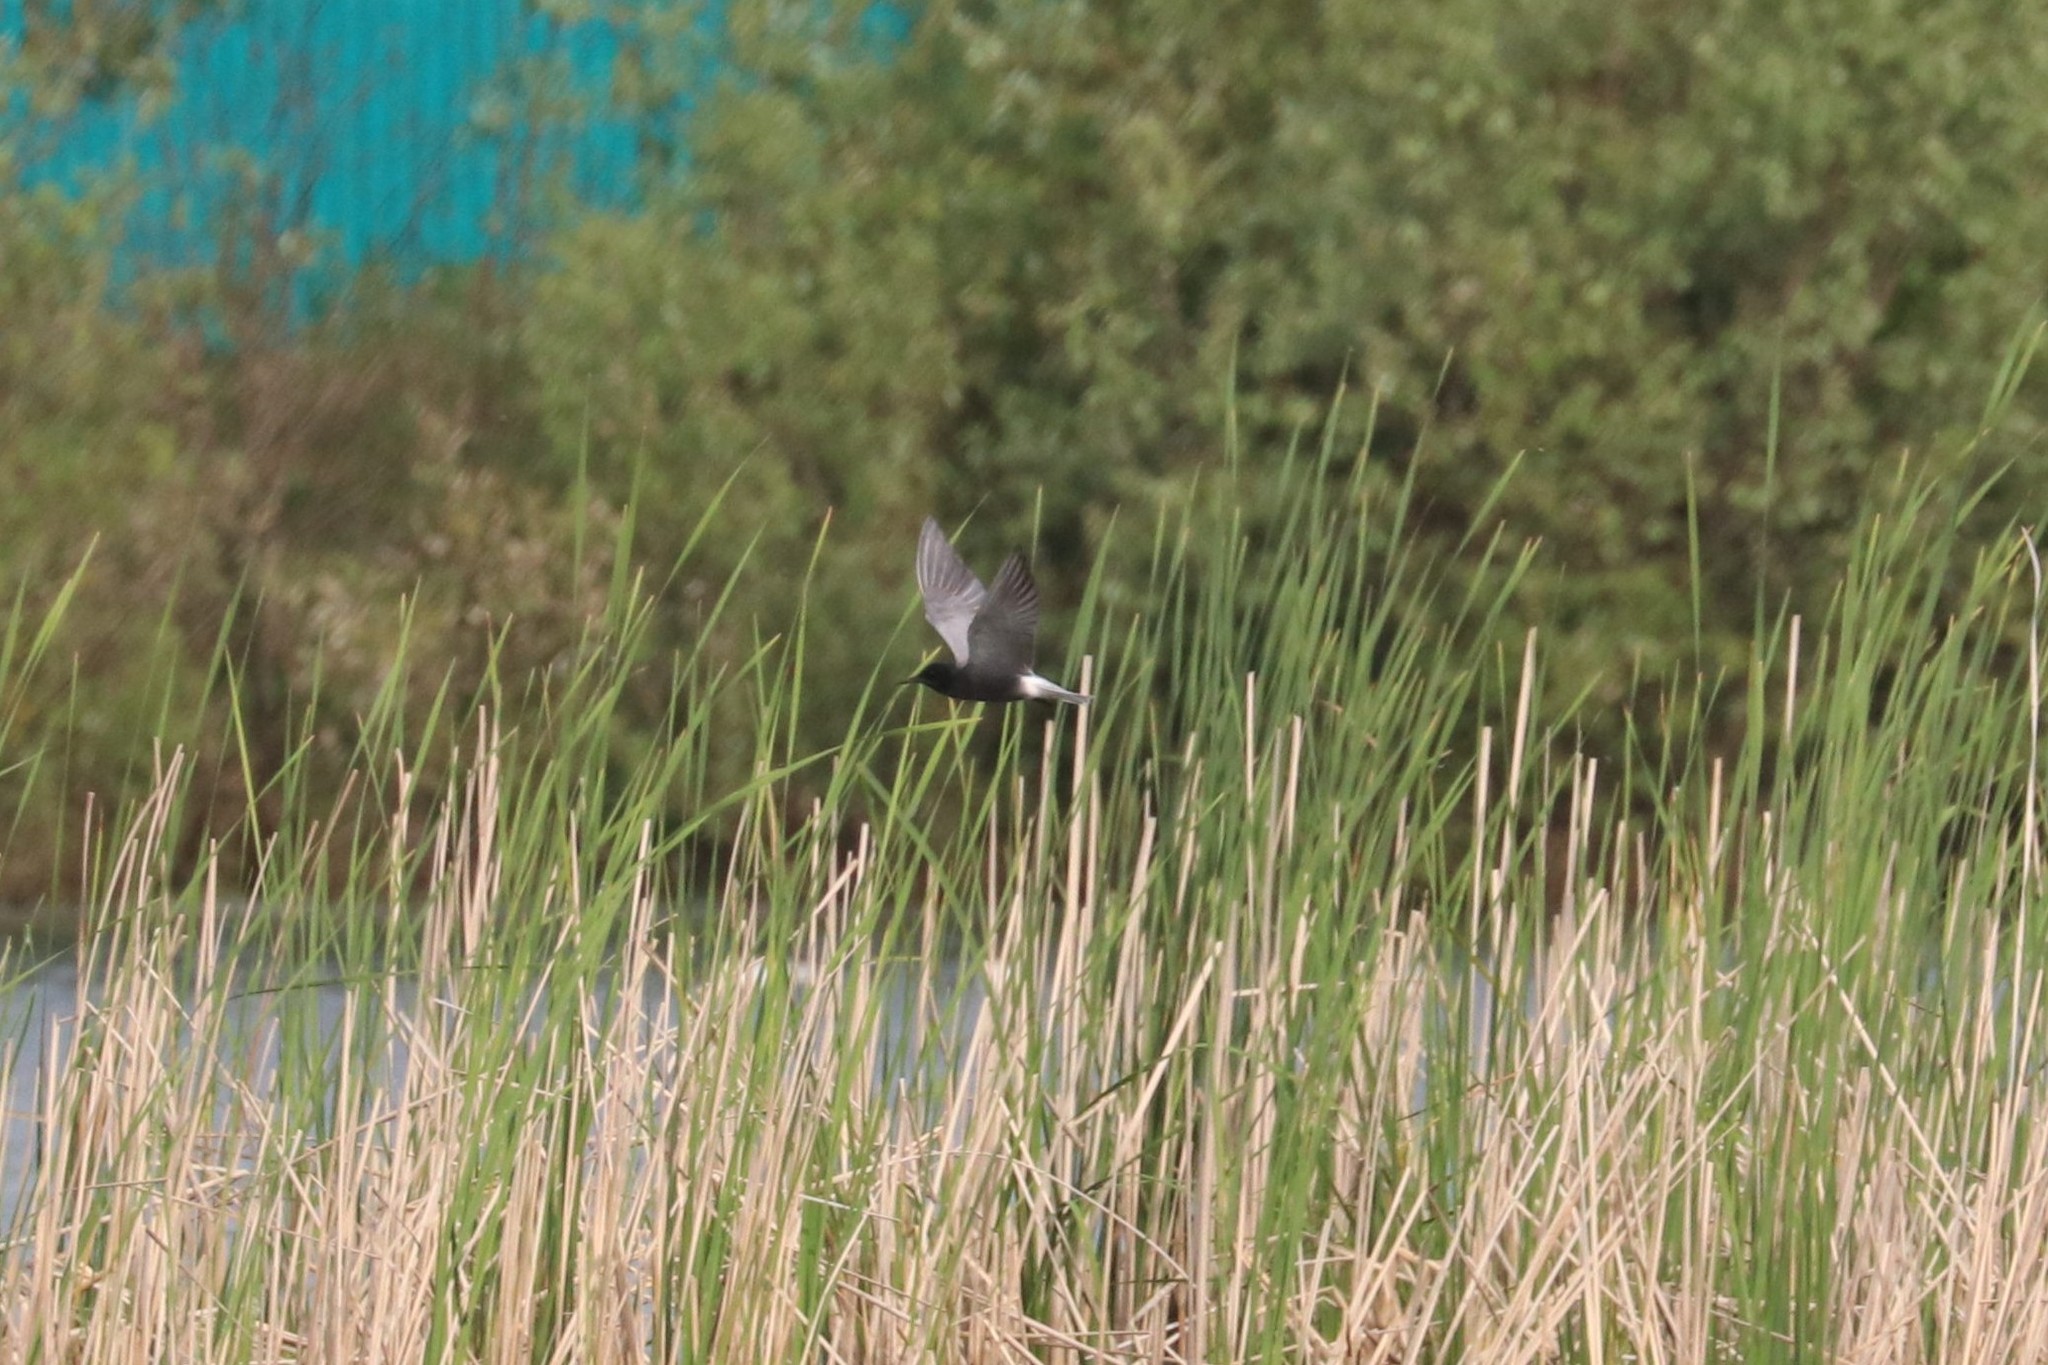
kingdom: Animalia
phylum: Chordata
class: Aves
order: Charadriiformes
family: Laridae
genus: Chlidonias
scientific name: Chlidonias niger
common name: Black tern
